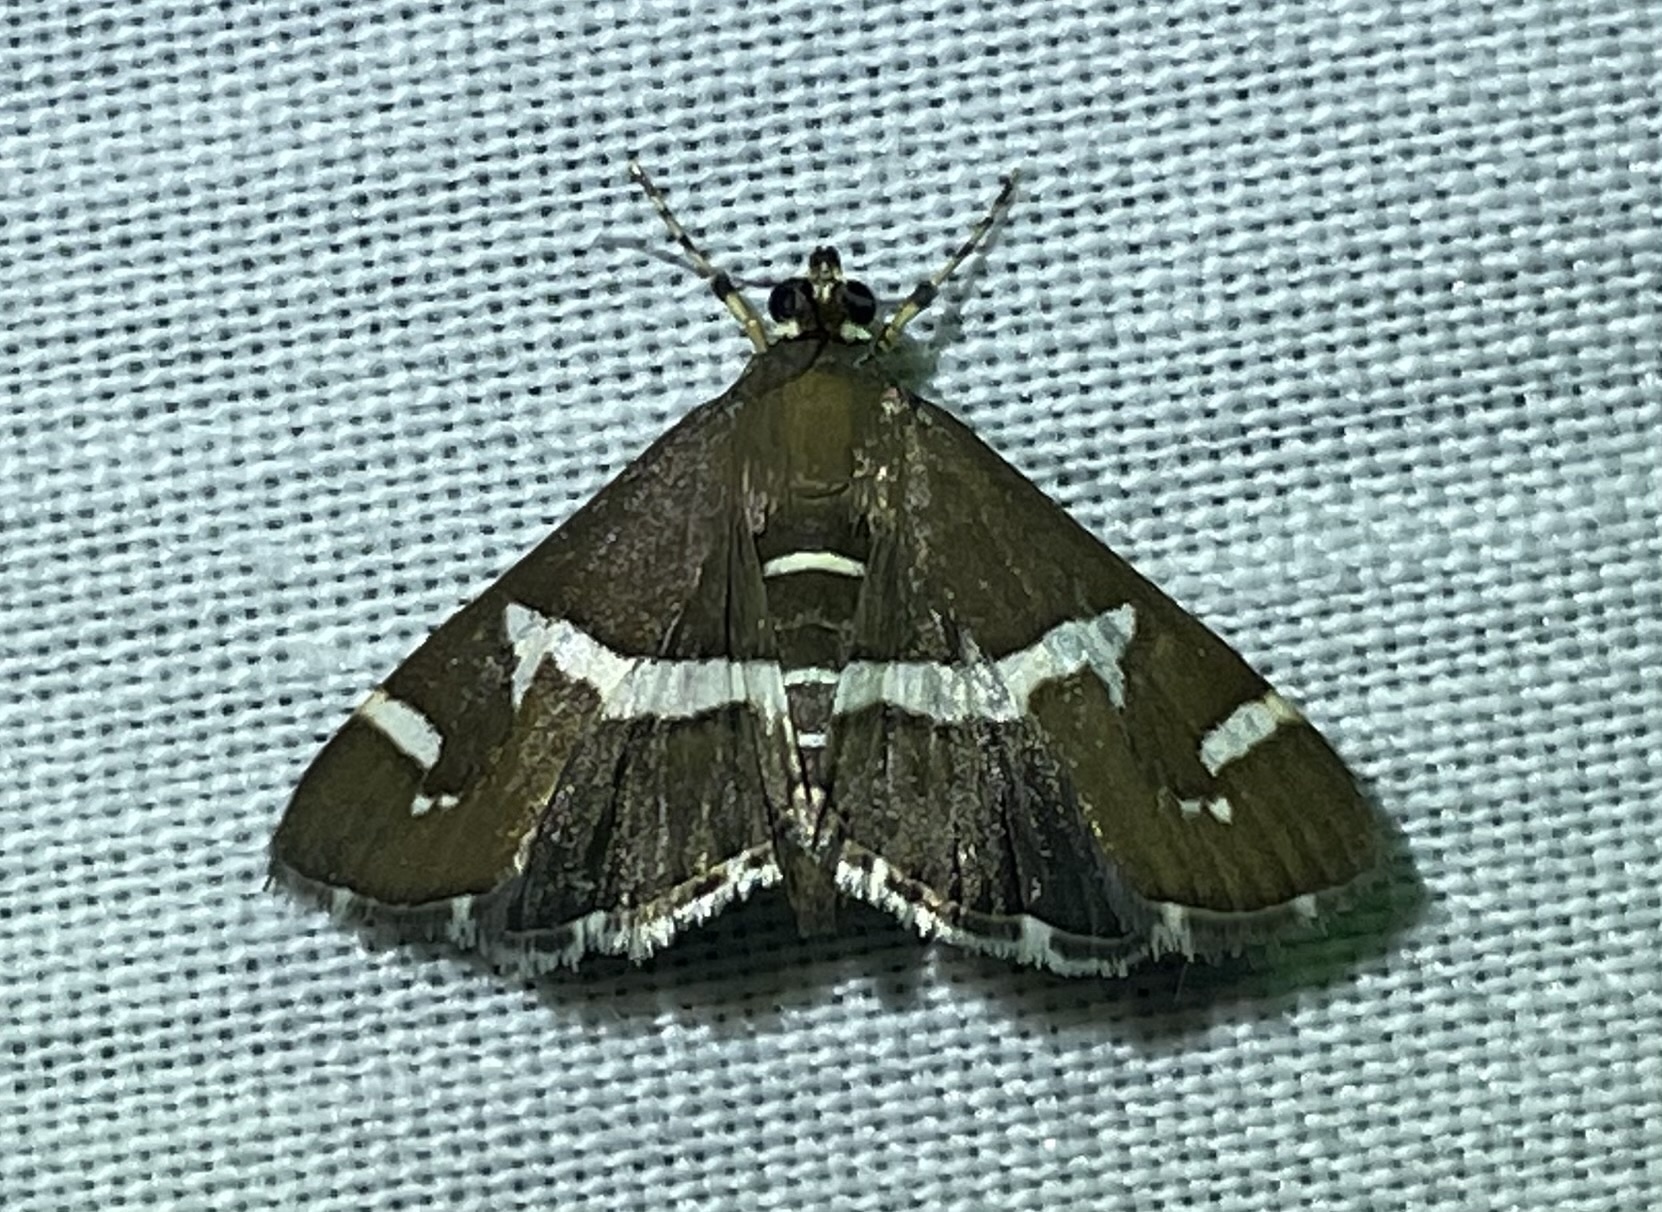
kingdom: Animalia
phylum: Arthropoda
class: Insecta
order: Lepidoptera
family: Crambidae
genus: Spoladea
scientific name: Spoladea recurvalis
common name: Beet webworm moth
